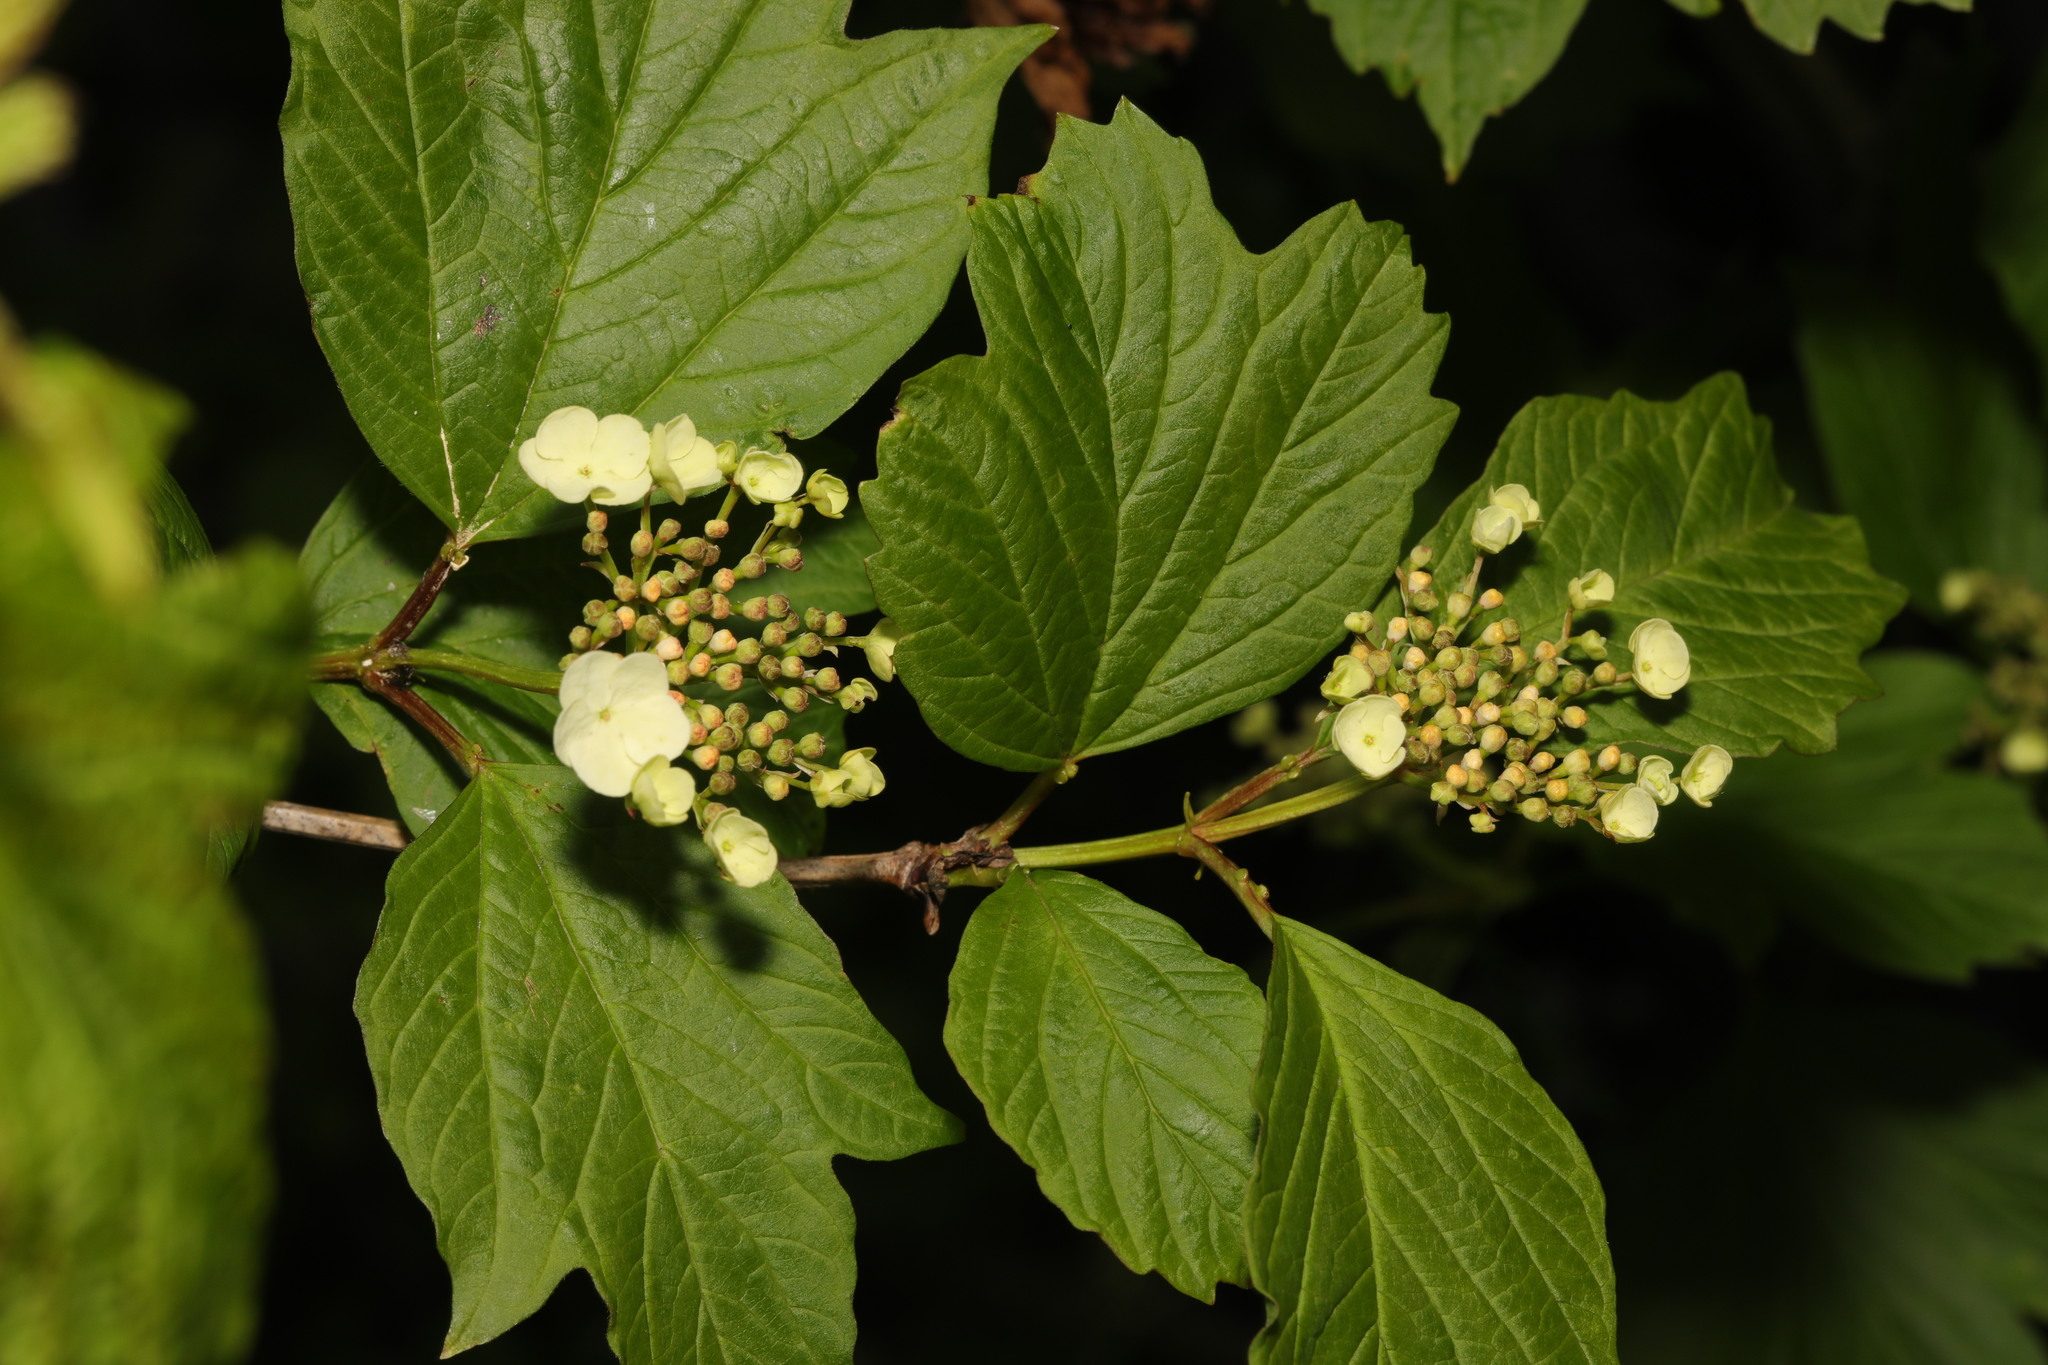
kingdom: Plantae
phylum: Tracheophyta
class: Magnoliopsida
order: Dipsacales
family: Viburnaceae
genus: Viburnum
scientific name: Viburnum opulus
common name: Guelder-rose
